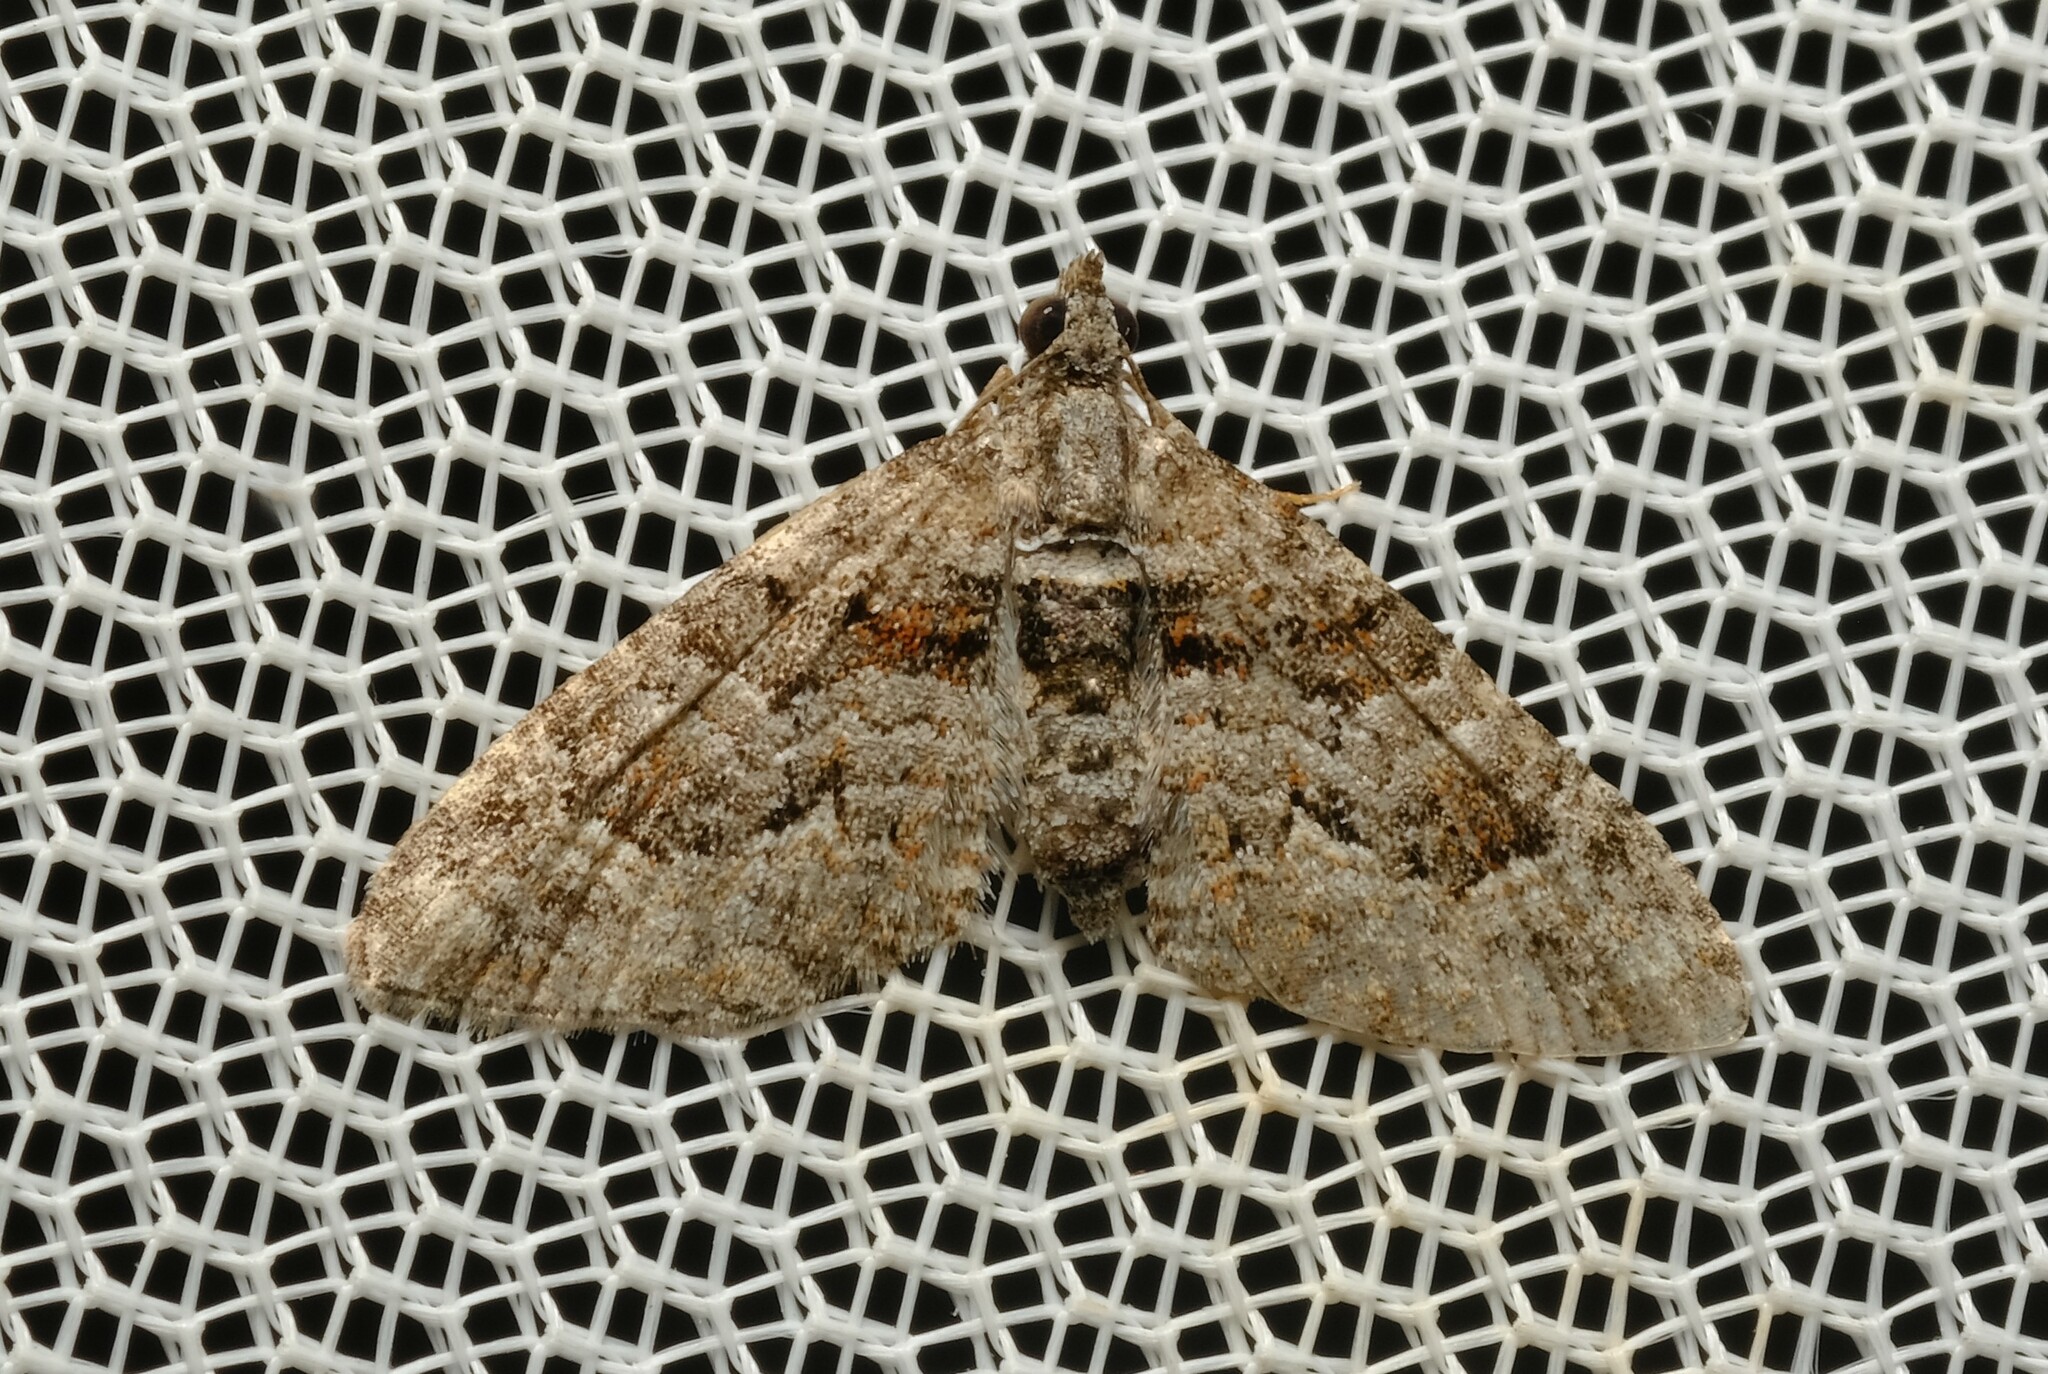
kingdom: Animalia
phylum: Arthropoda
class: Insecta
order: Lepidoptera
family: Geometridae
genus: Phrissogonus
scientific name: Phrissogonus laticostata
